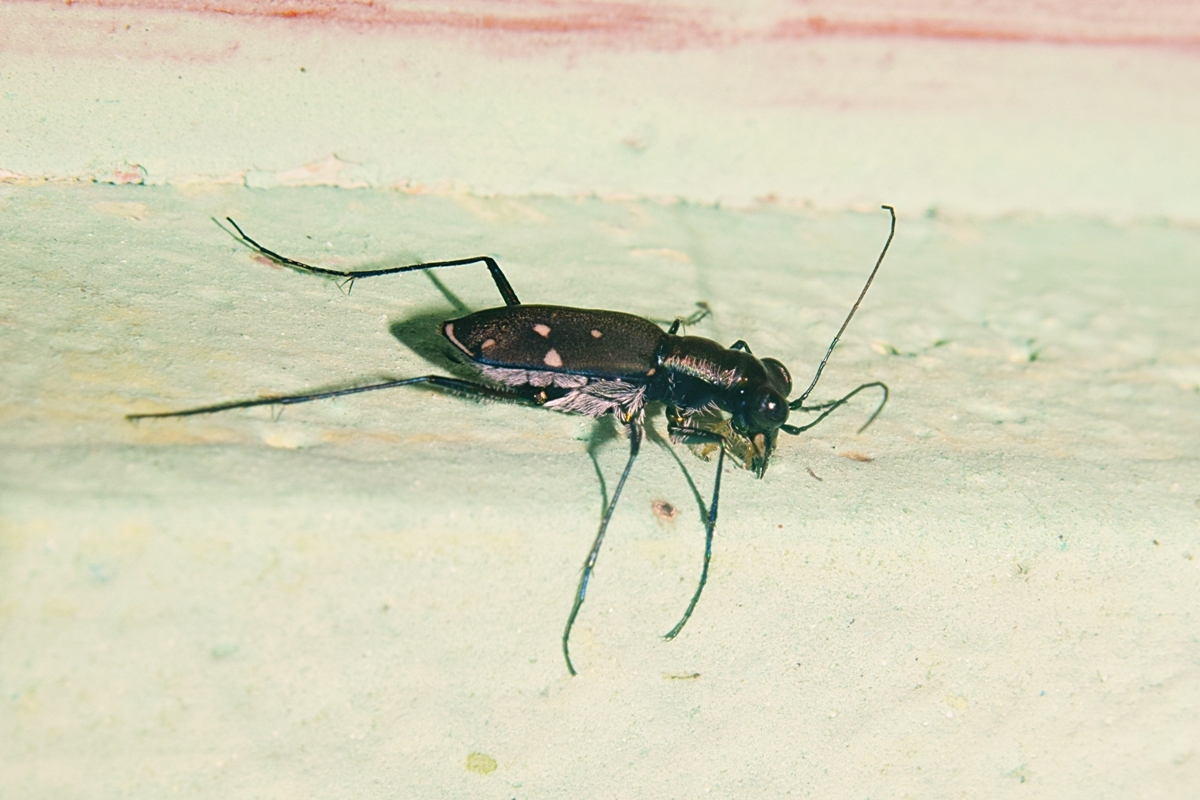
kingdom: Animalia
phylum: Arthropoda
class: Insecta
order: Coleoptera
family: Carabidae
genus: Cylindera
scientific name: Cylindera decempunctata
